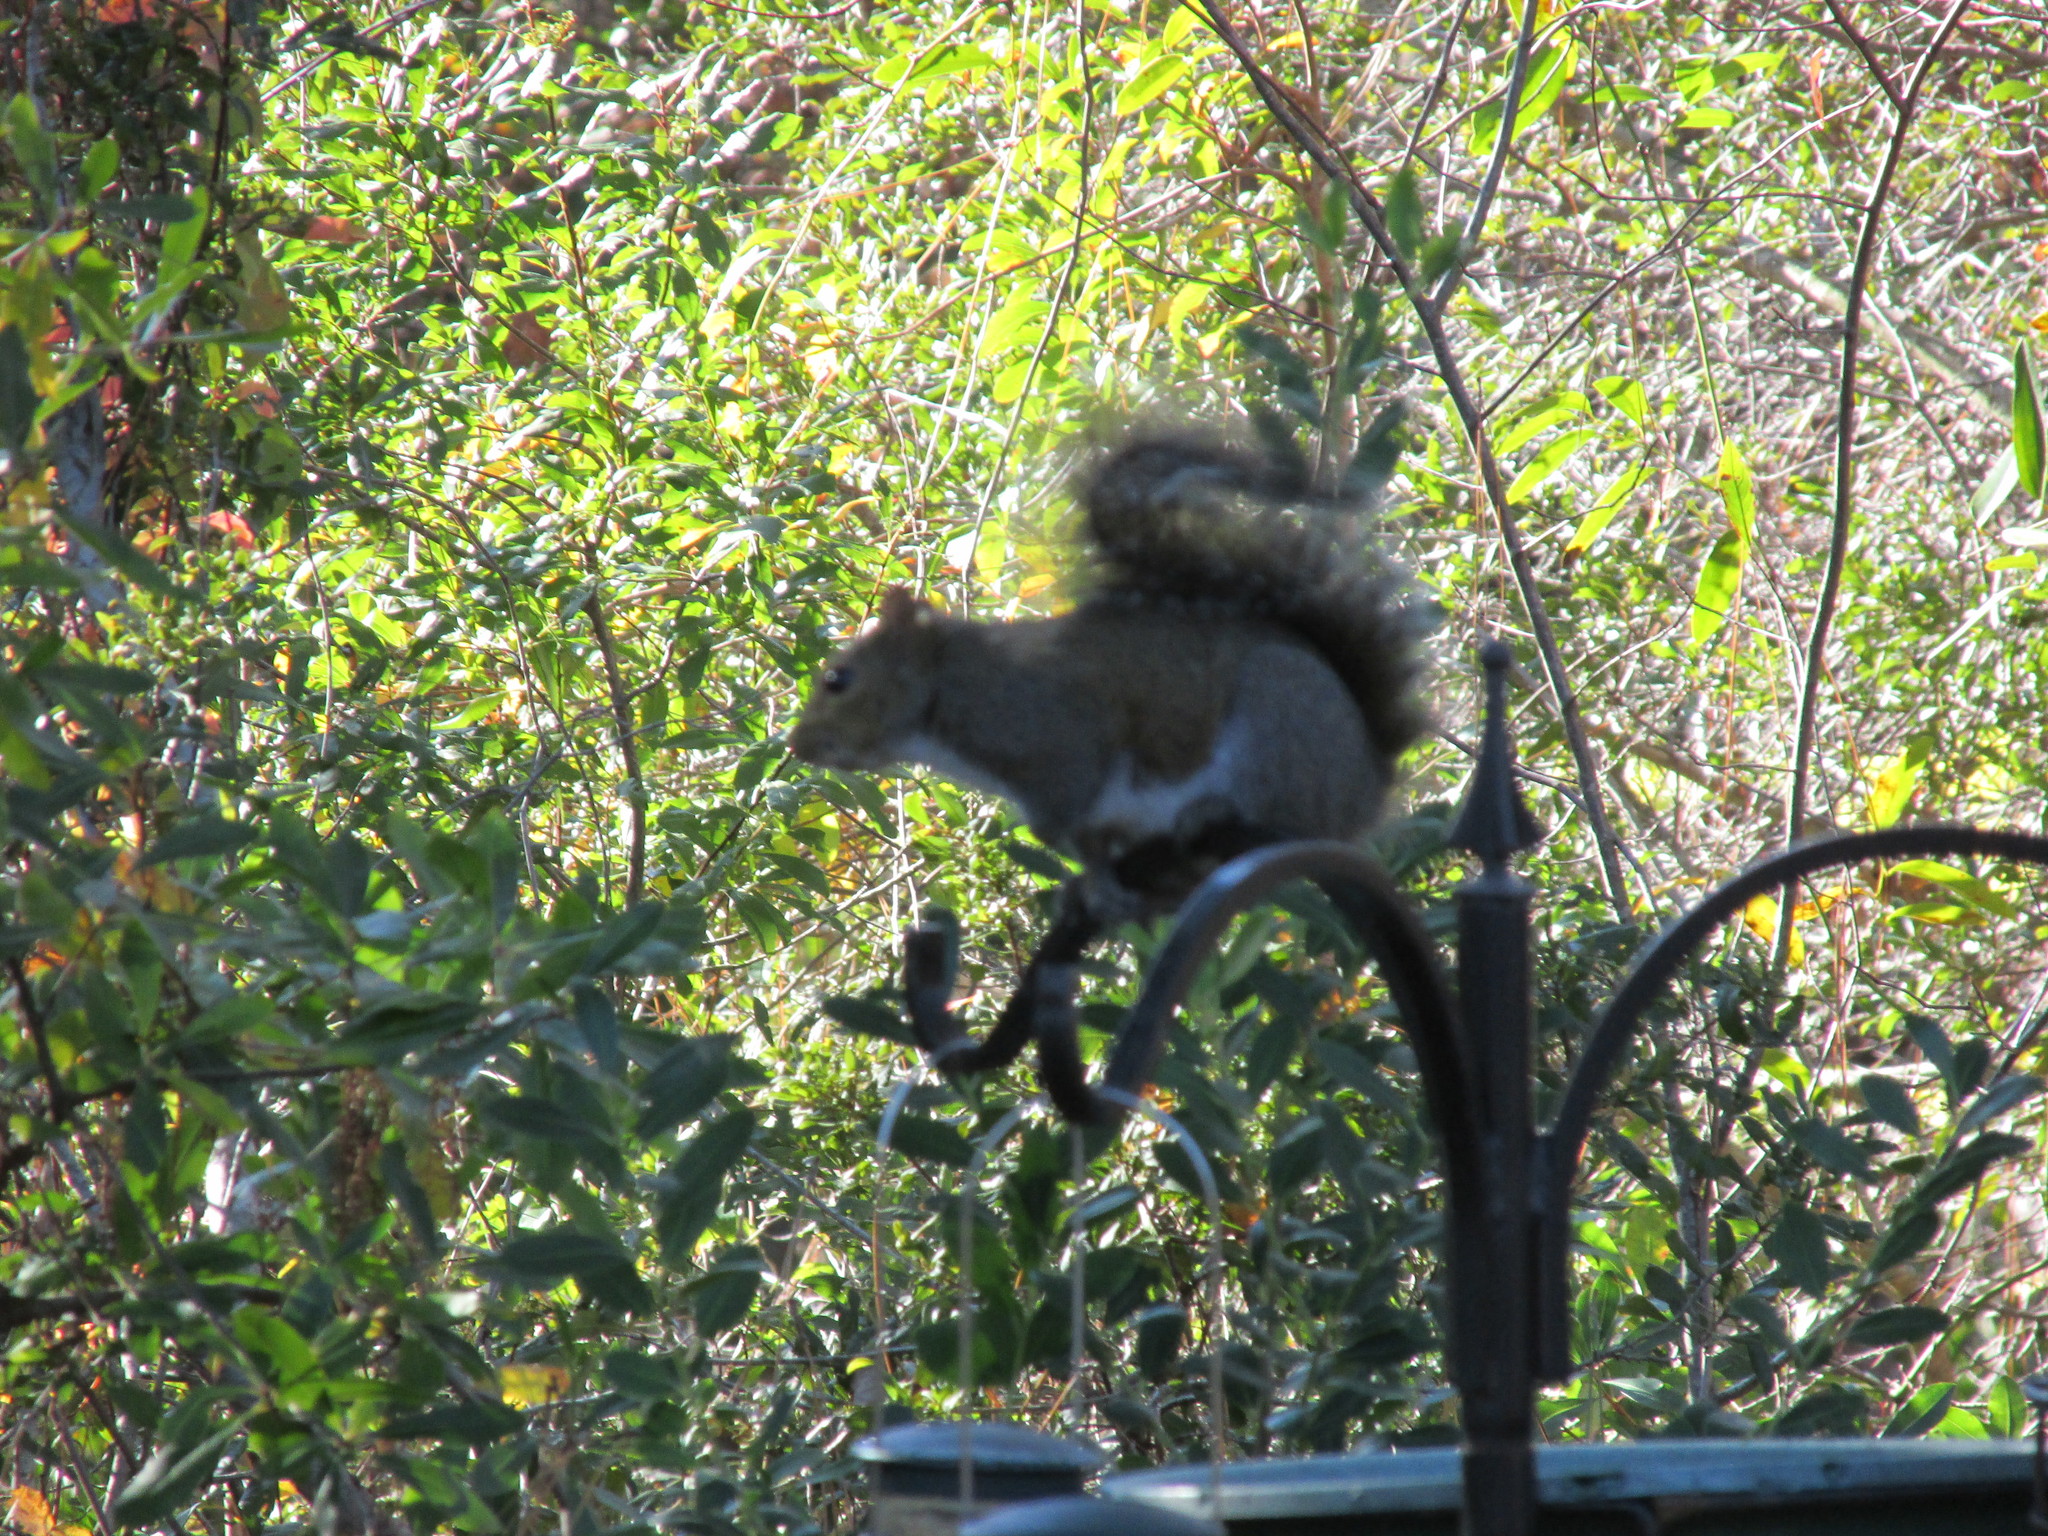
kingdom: Animalia
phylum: Chordata
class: Mammalia
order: Rodentia
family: Sciuridae
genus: Sciurus
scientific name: Sciurus carolinensis
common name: Eastern gray squirrel
